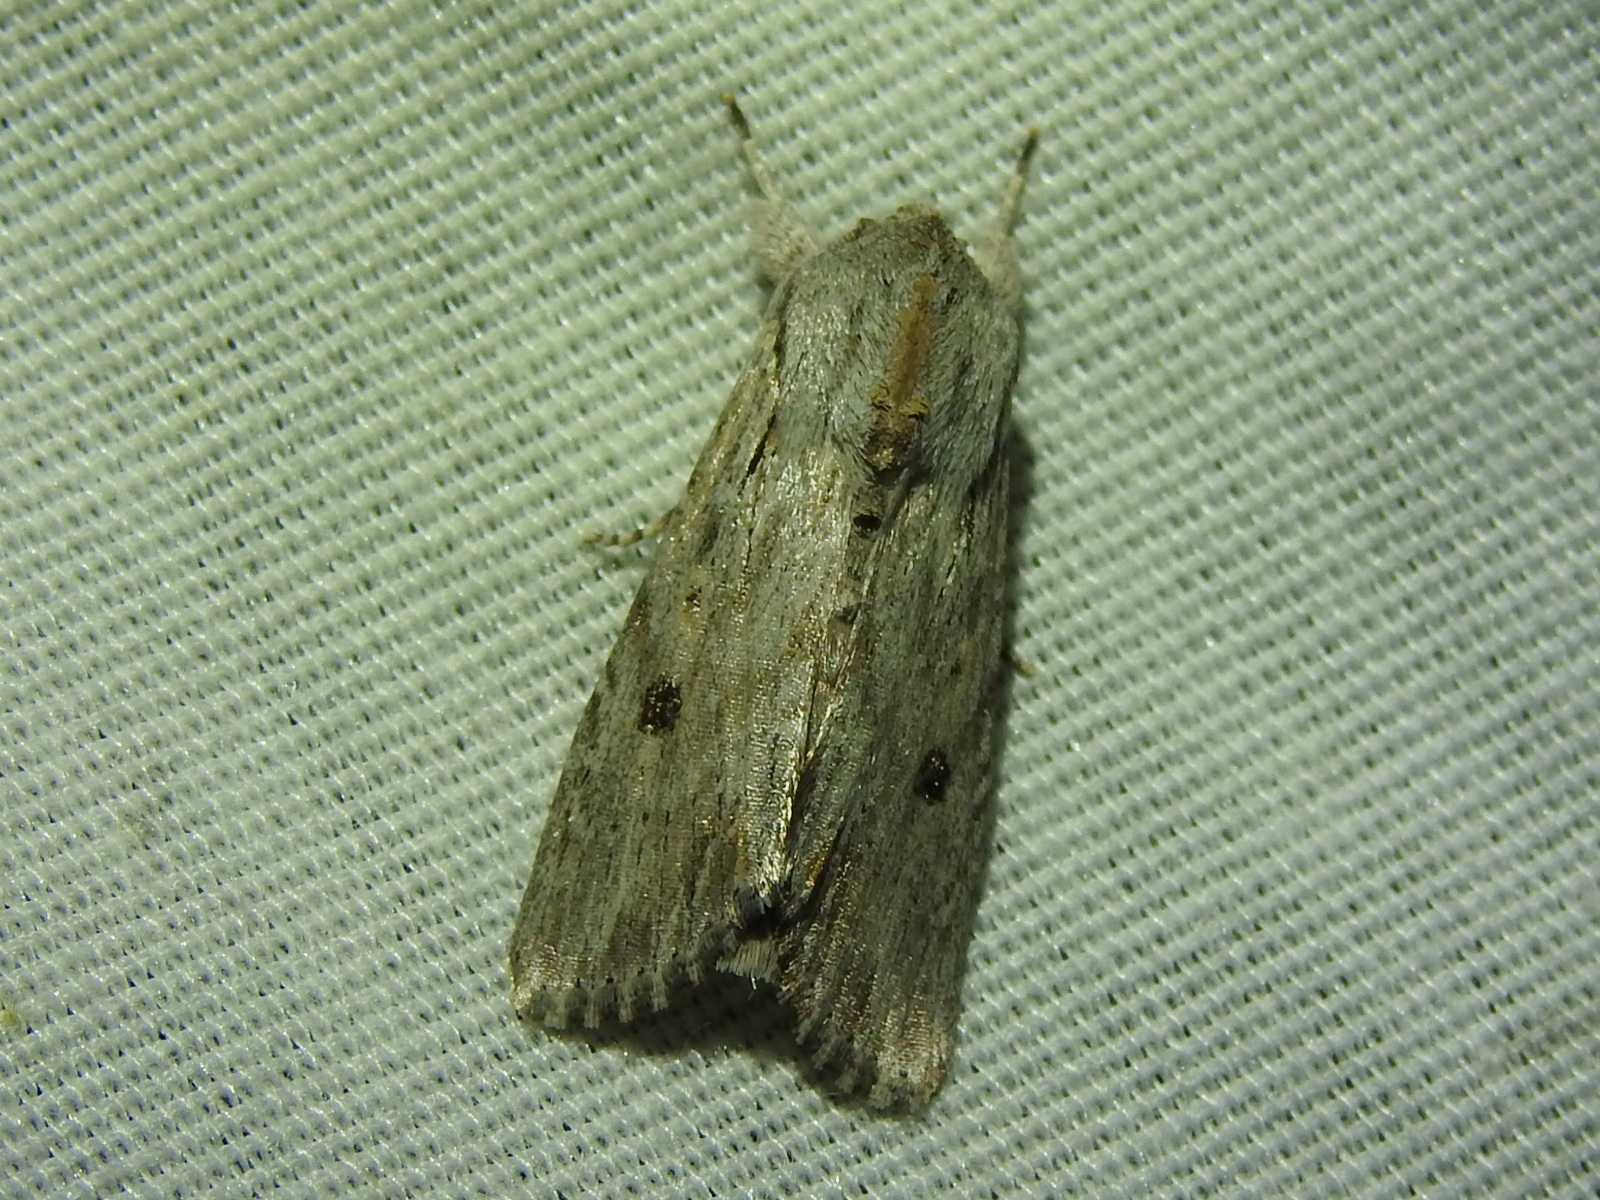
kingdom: Animalia
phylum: Arthropoda
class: Insecta
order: Lepidoptera
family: Noctuidae
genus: Spodoptera
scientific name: Spodoptera eridania
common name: Southern army worm
